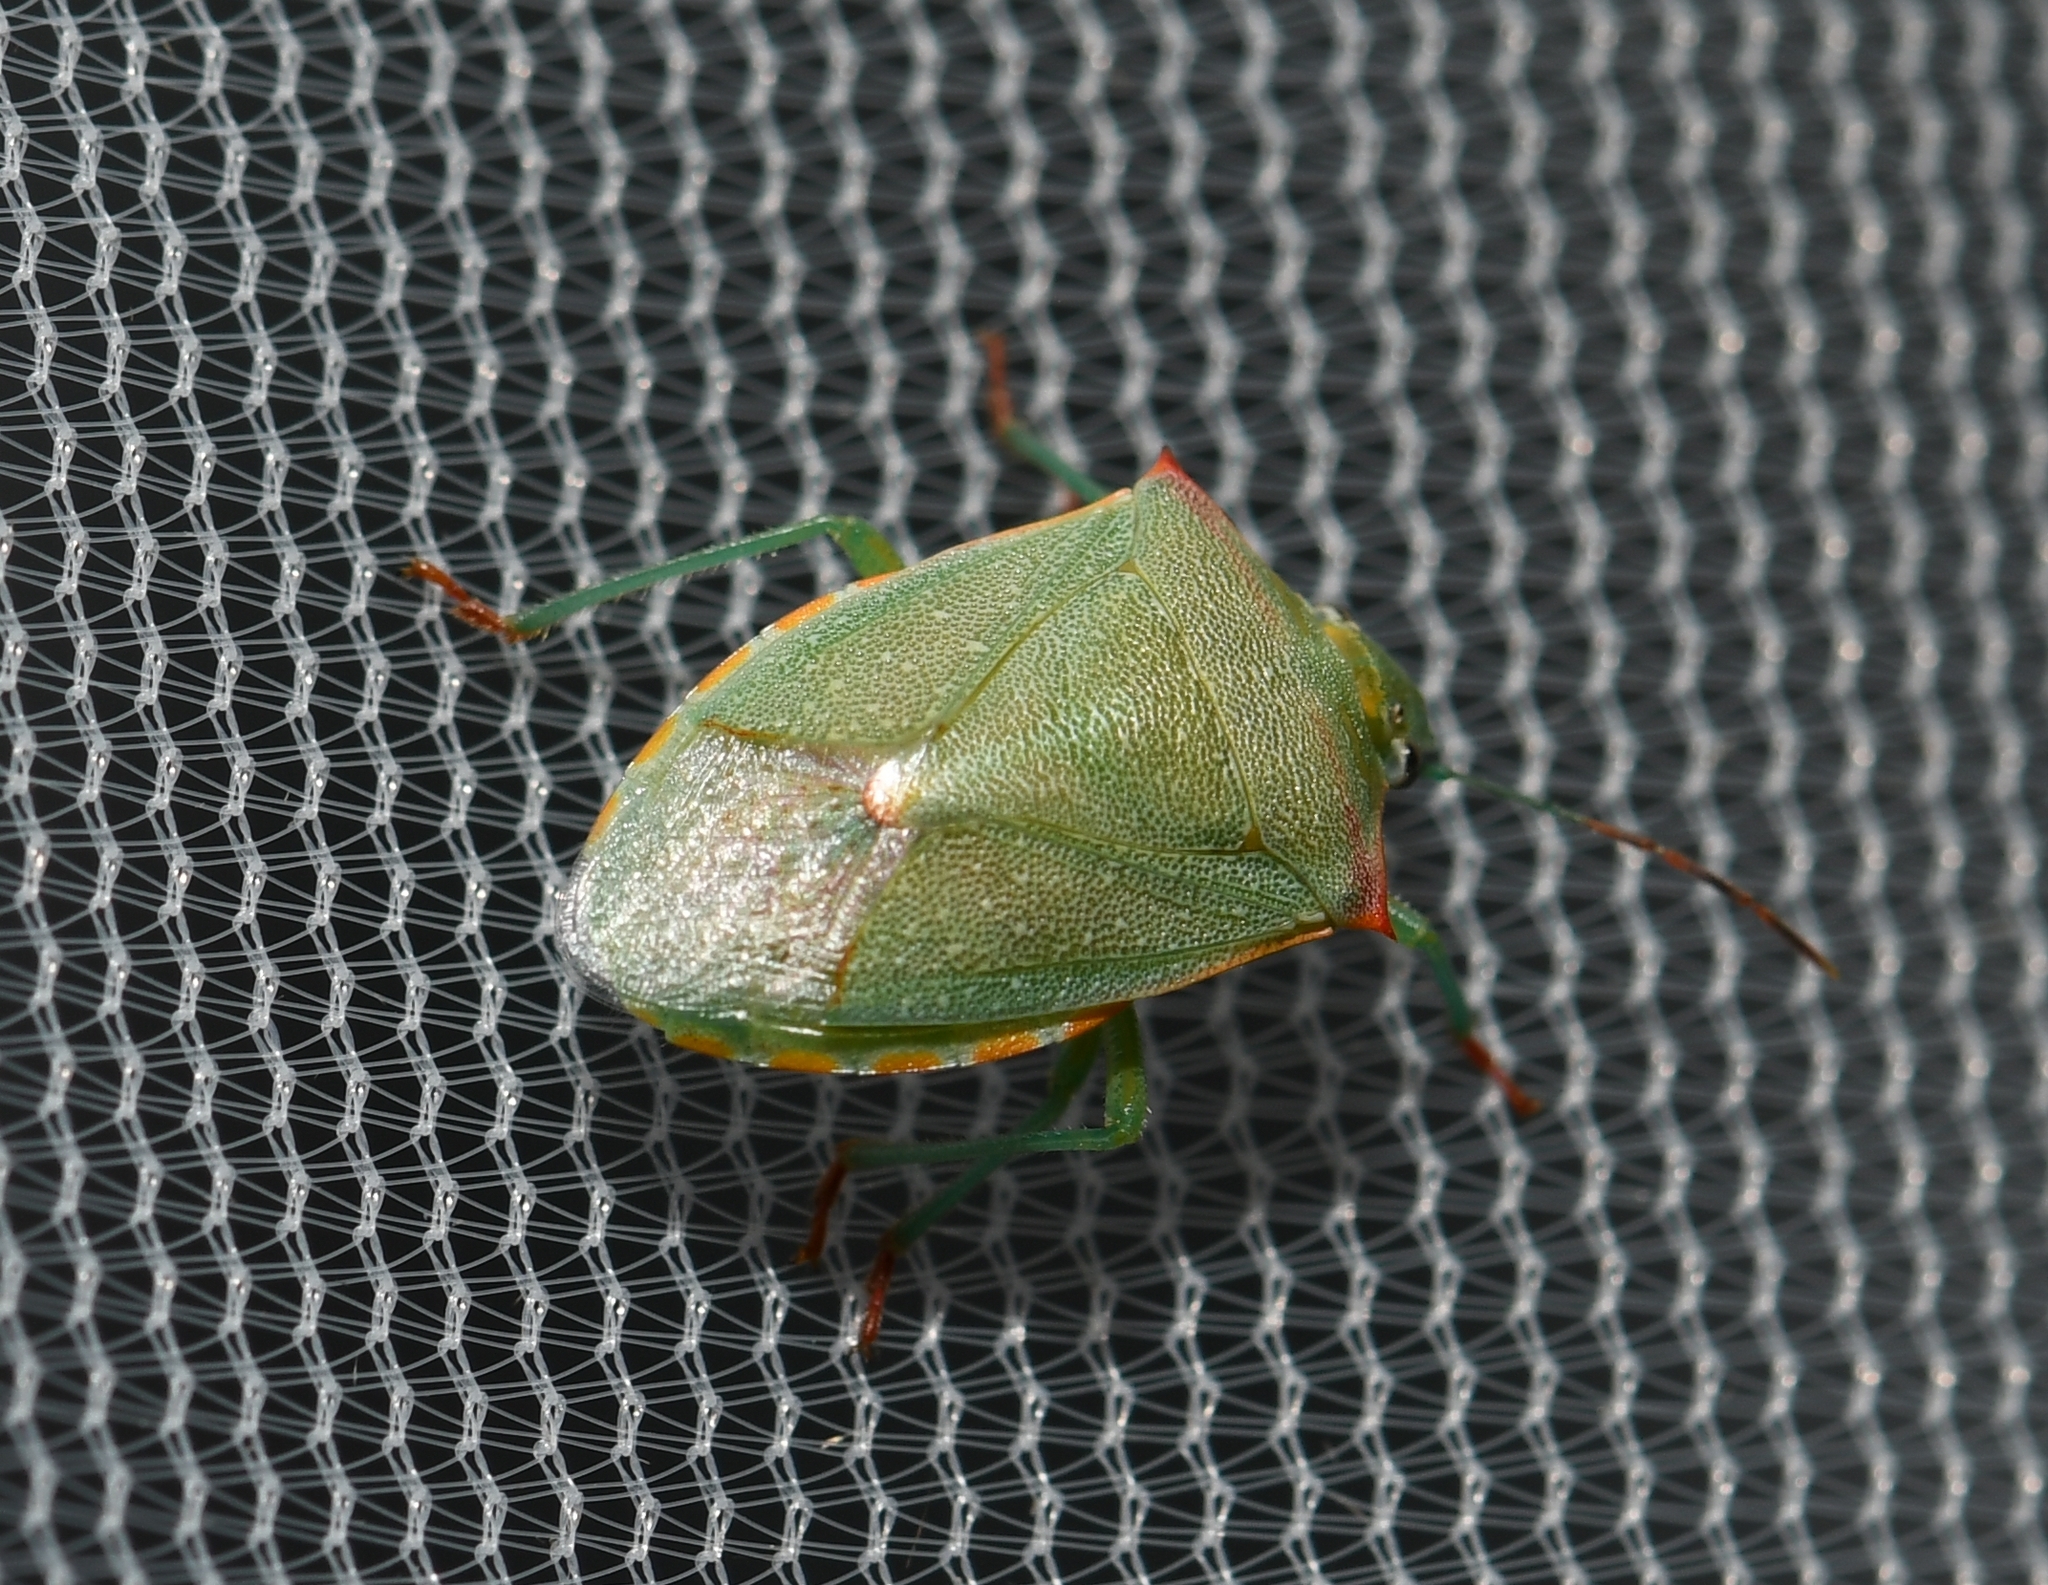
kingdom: Animalia
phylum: Arthropoda
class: Insecta
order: Hemiptera
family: Pentatomidae
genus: Thyanta
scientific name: Thyanta custator
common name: Stink bug
